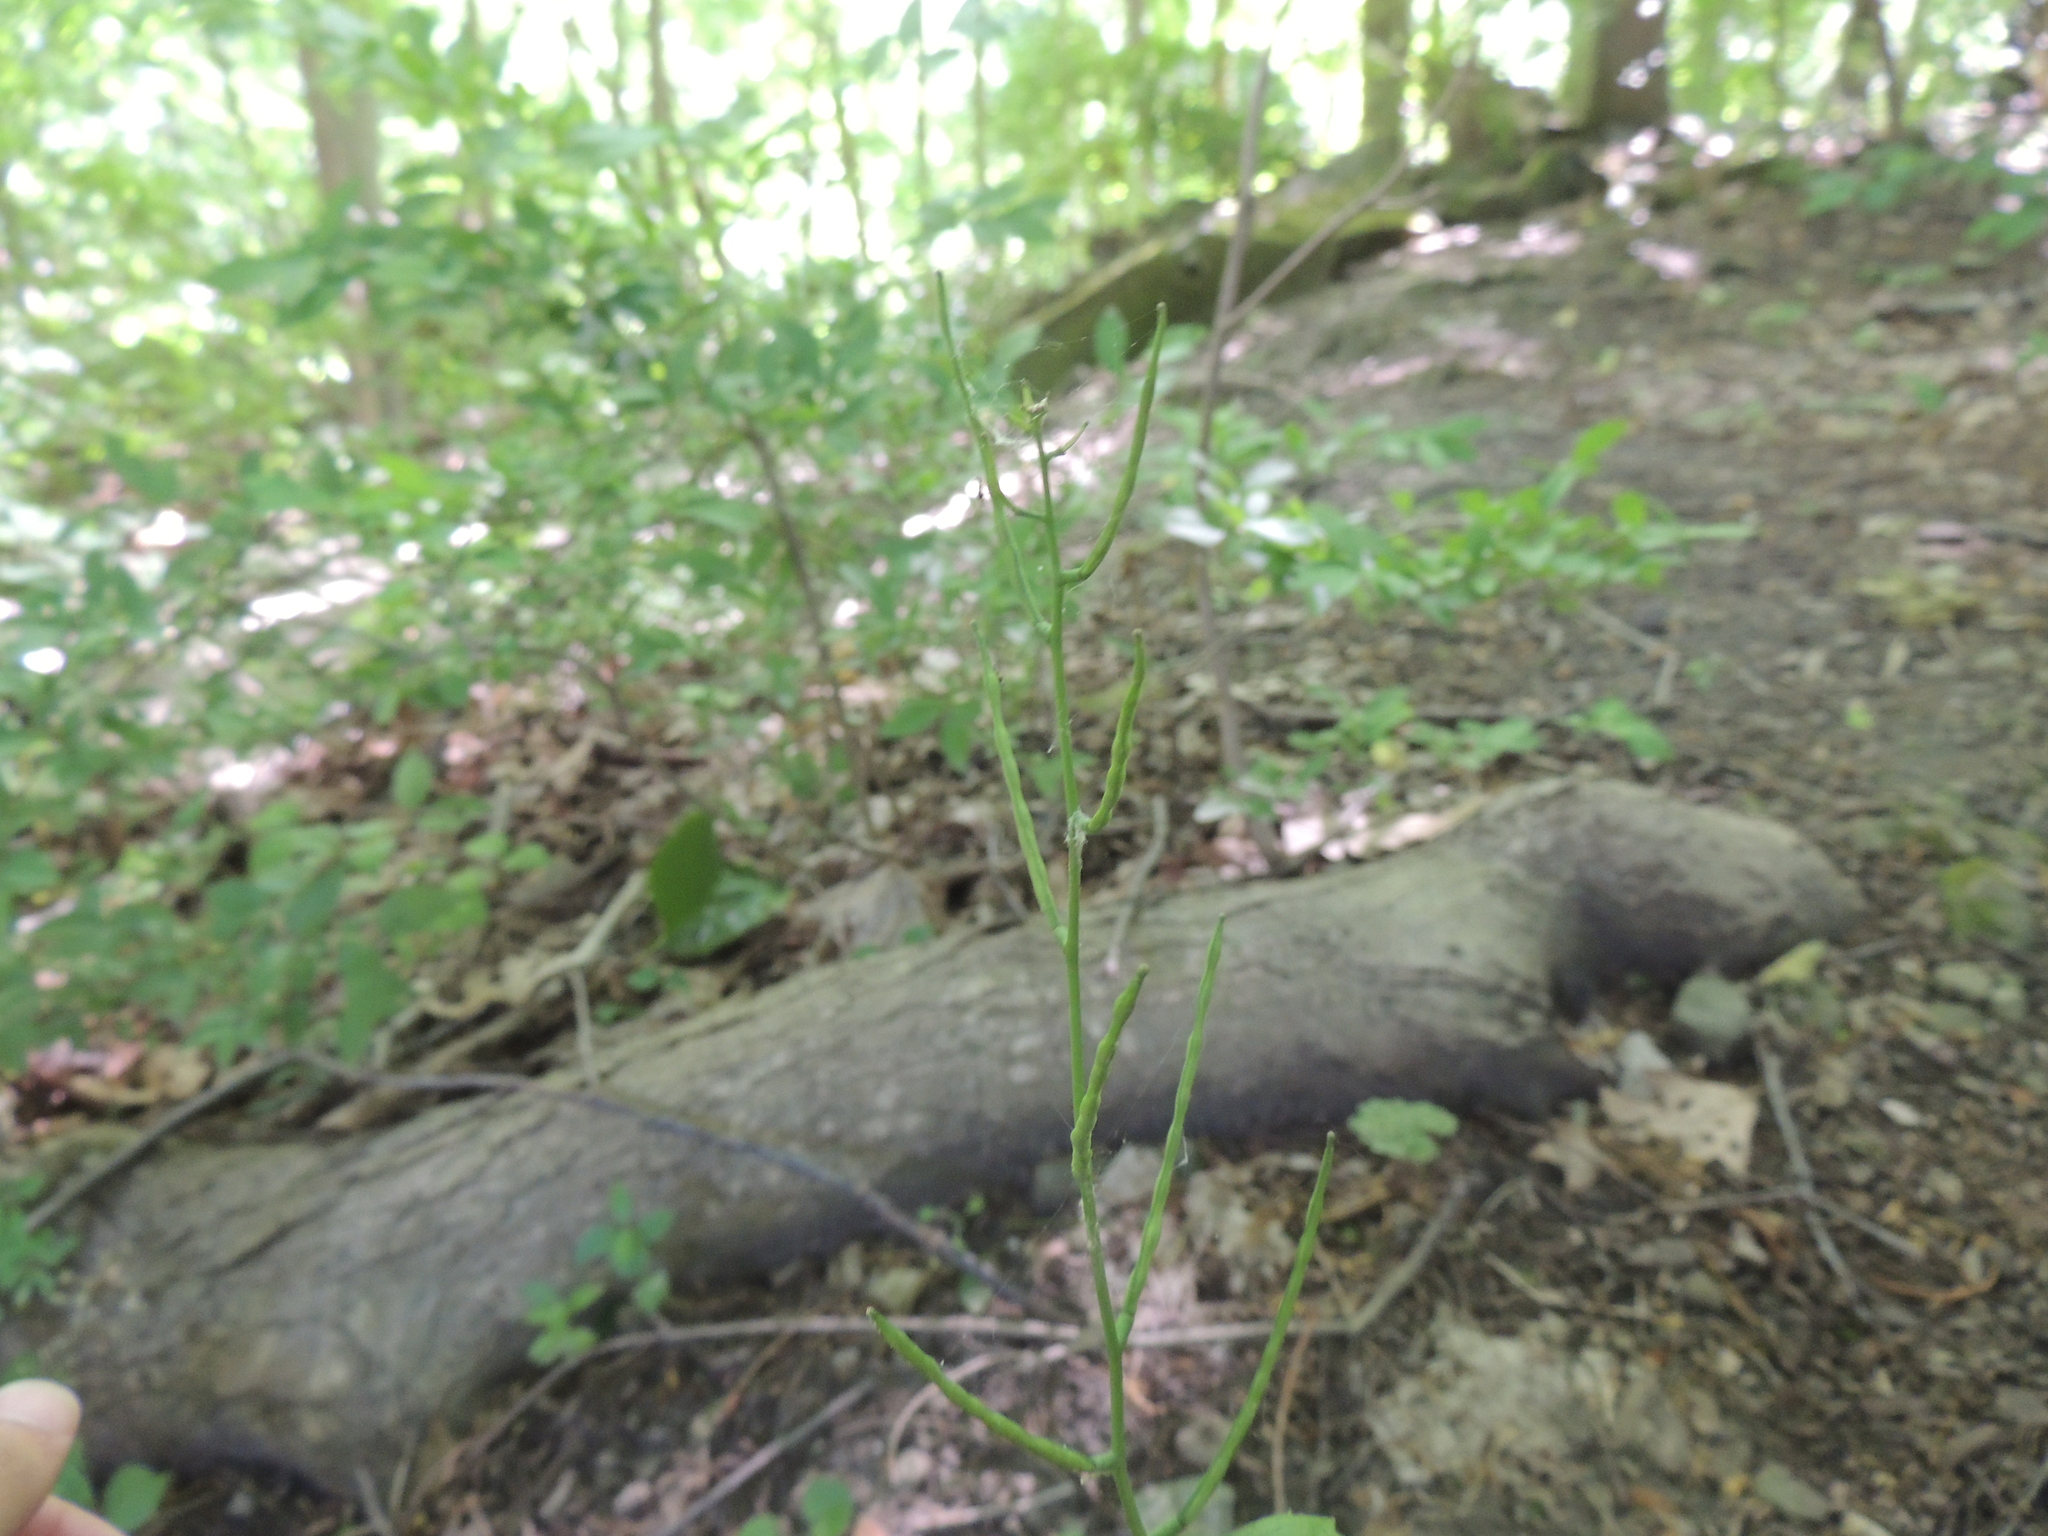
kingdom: Plantae
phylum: Tracheophyta
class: Magnoliopsida
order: Brassicales
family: Brassicaceae
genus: Alliaria
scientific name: Alliaria petiolata
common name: Garlic mustard
